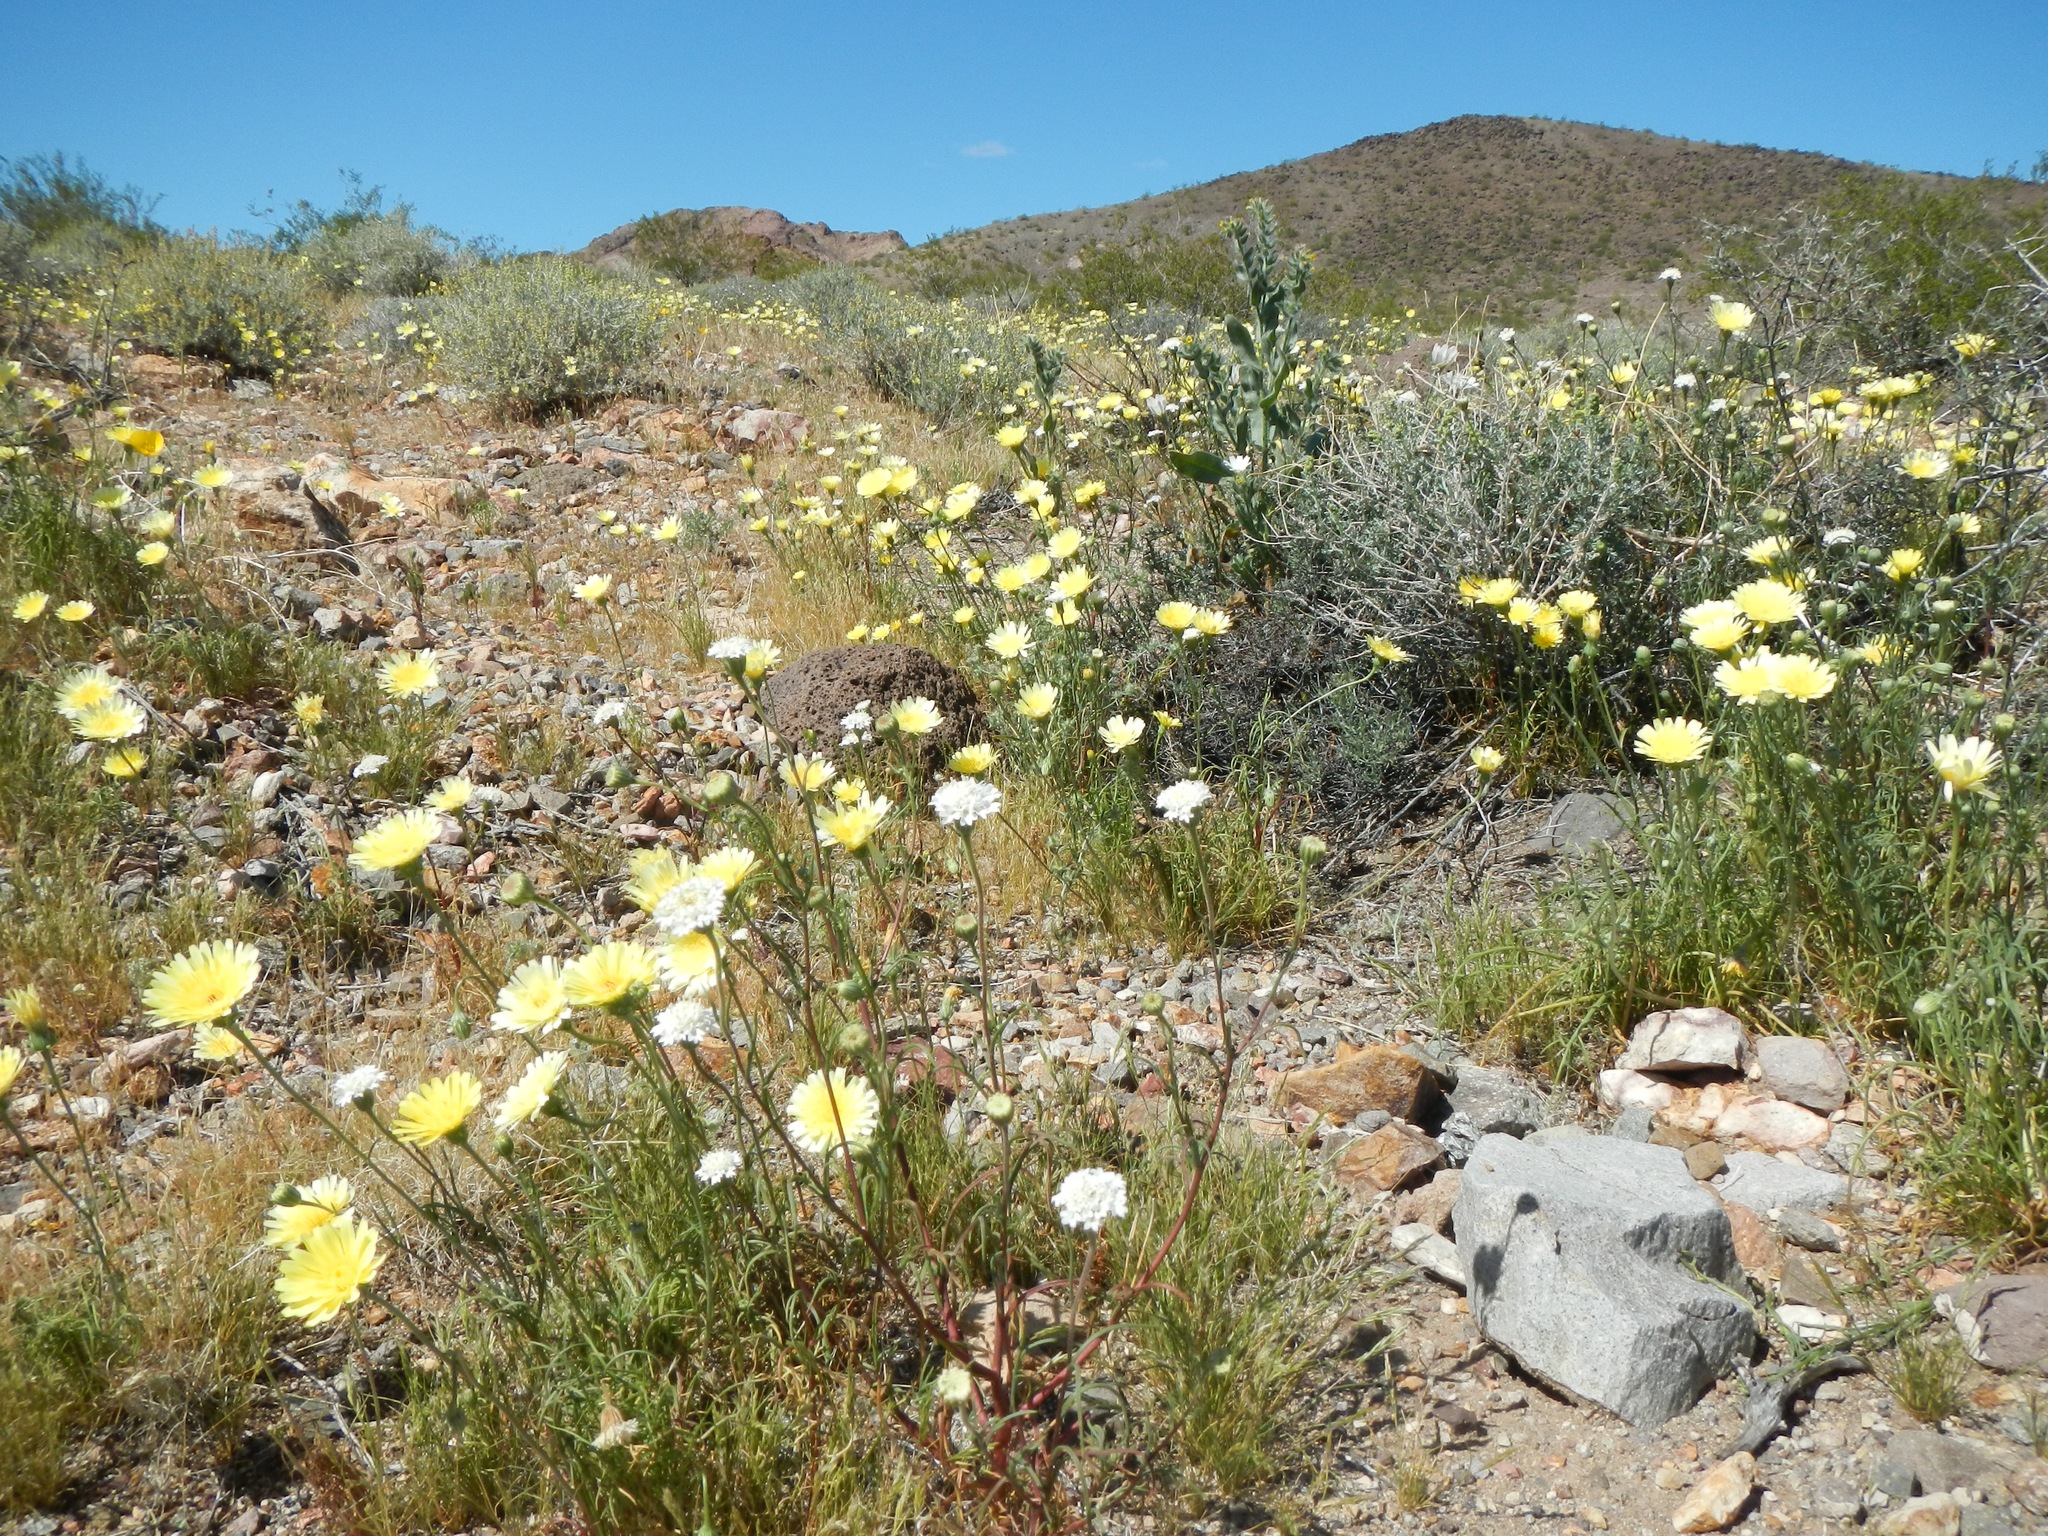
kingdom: Plantae
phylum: Tracheophyta
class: Magnoliopsida
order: Asterales
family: Asteraceae
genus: Malacothrix
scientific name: Malacothrix glabrata
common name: Smooth desert-dandelion
